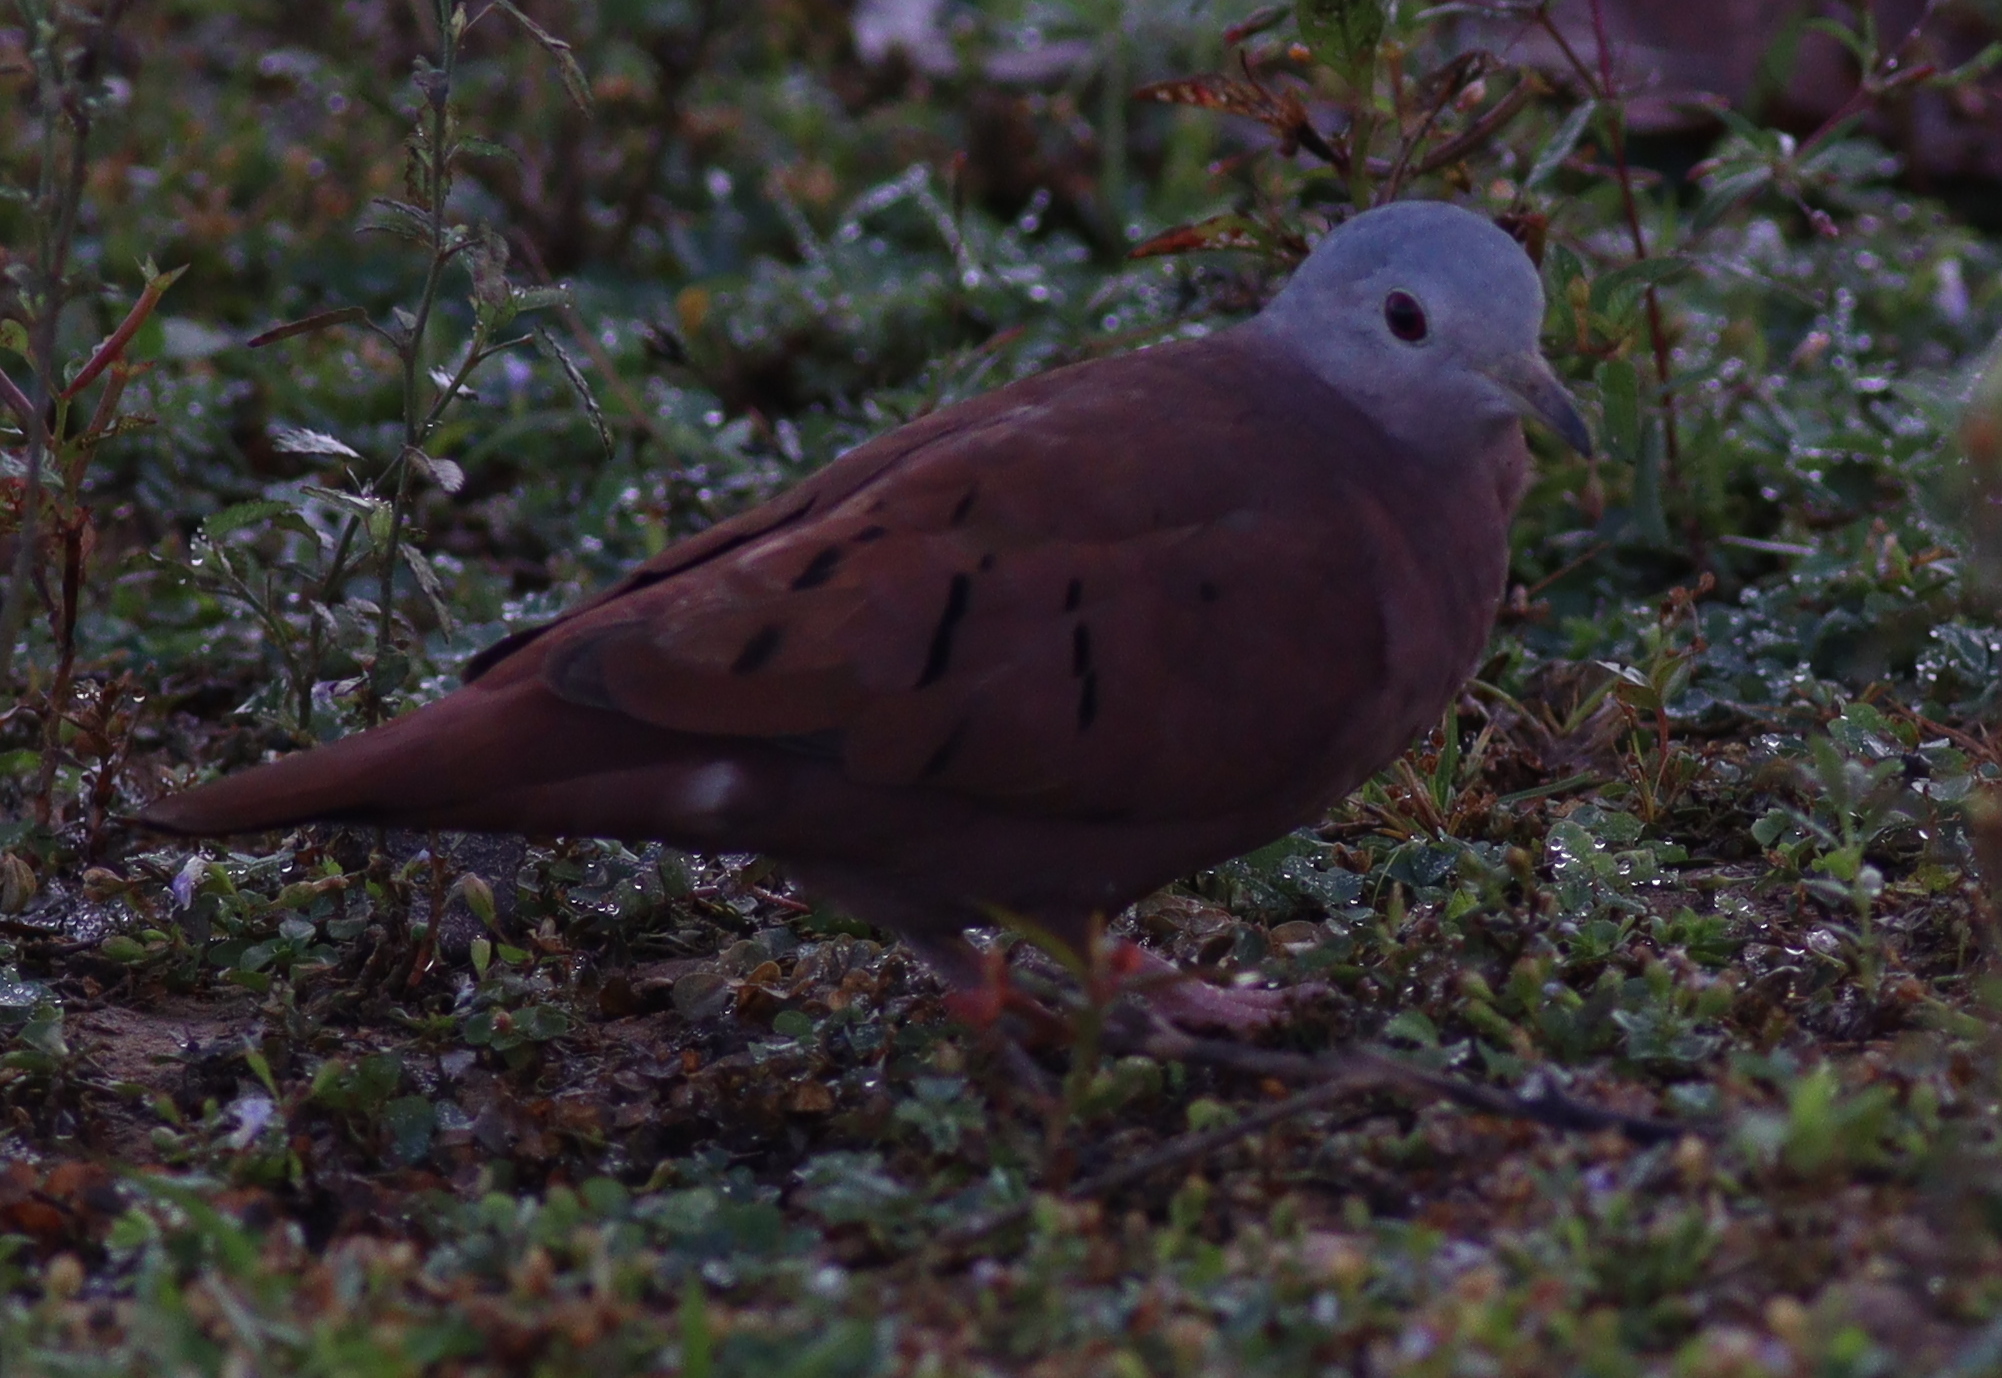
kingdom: Animalia
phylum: Chordata
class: Aves
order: Columbiformes
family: Columbidae
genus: Columbina
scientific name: Columbina talpacoti
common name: Ruddy ground dove
